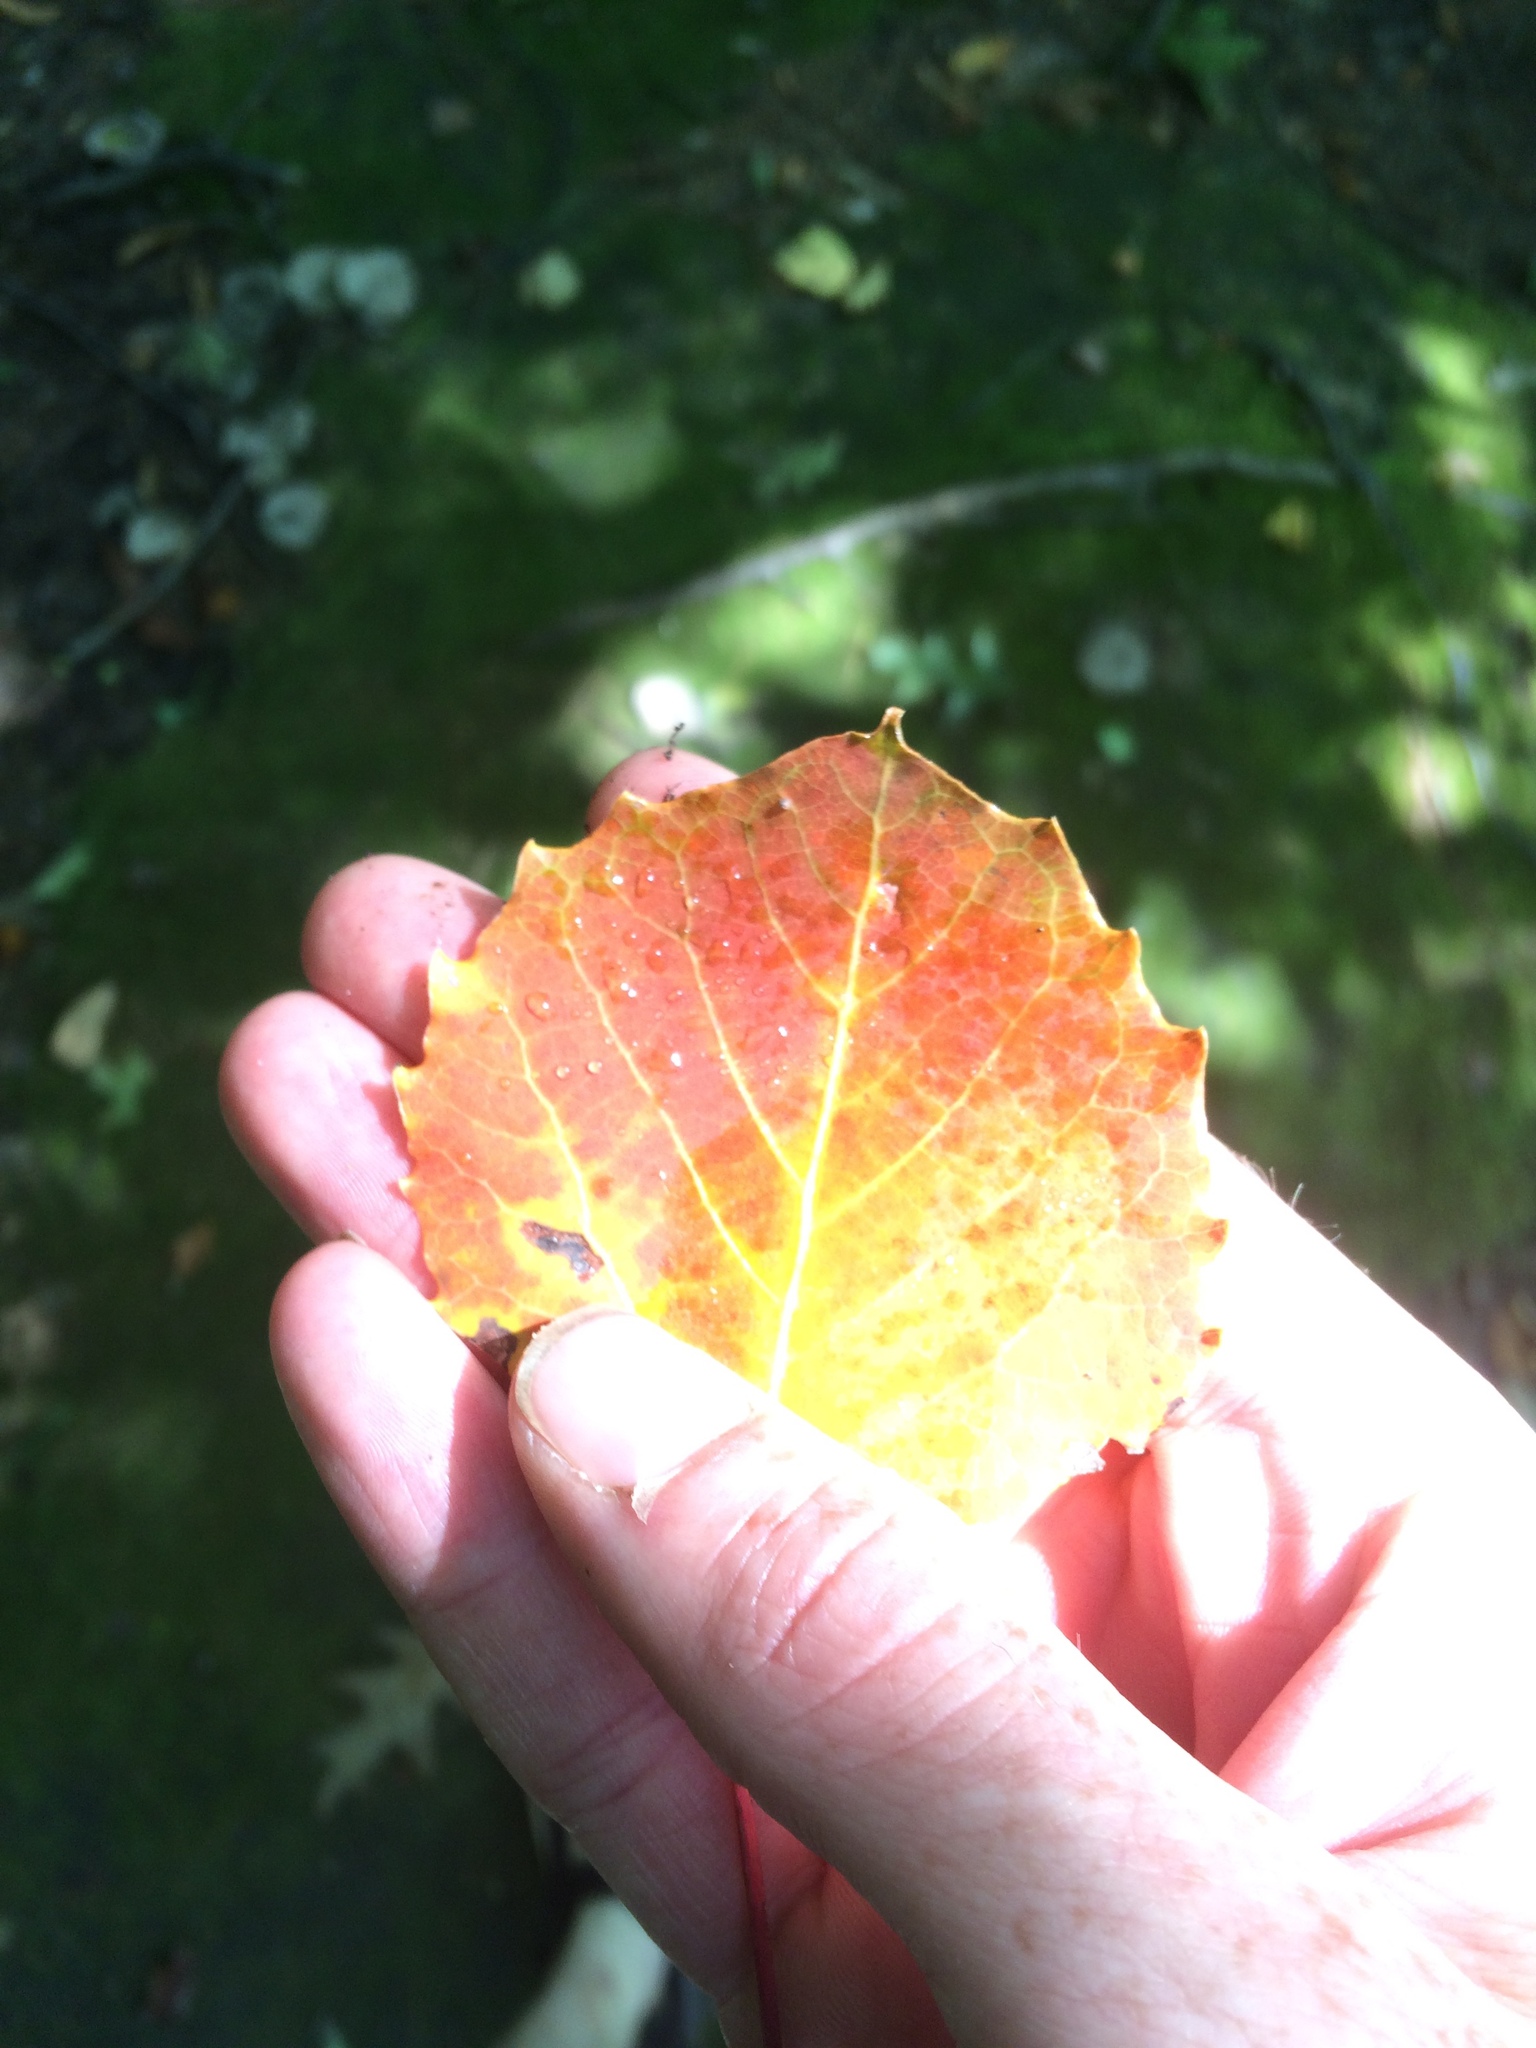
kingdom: Plantae
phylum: Tracheophyta
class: Magnoliopsida
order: Malpighiales
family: Salicaceae
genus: Populus
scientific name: Populus grandidentata
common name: Bigtooth aspen
